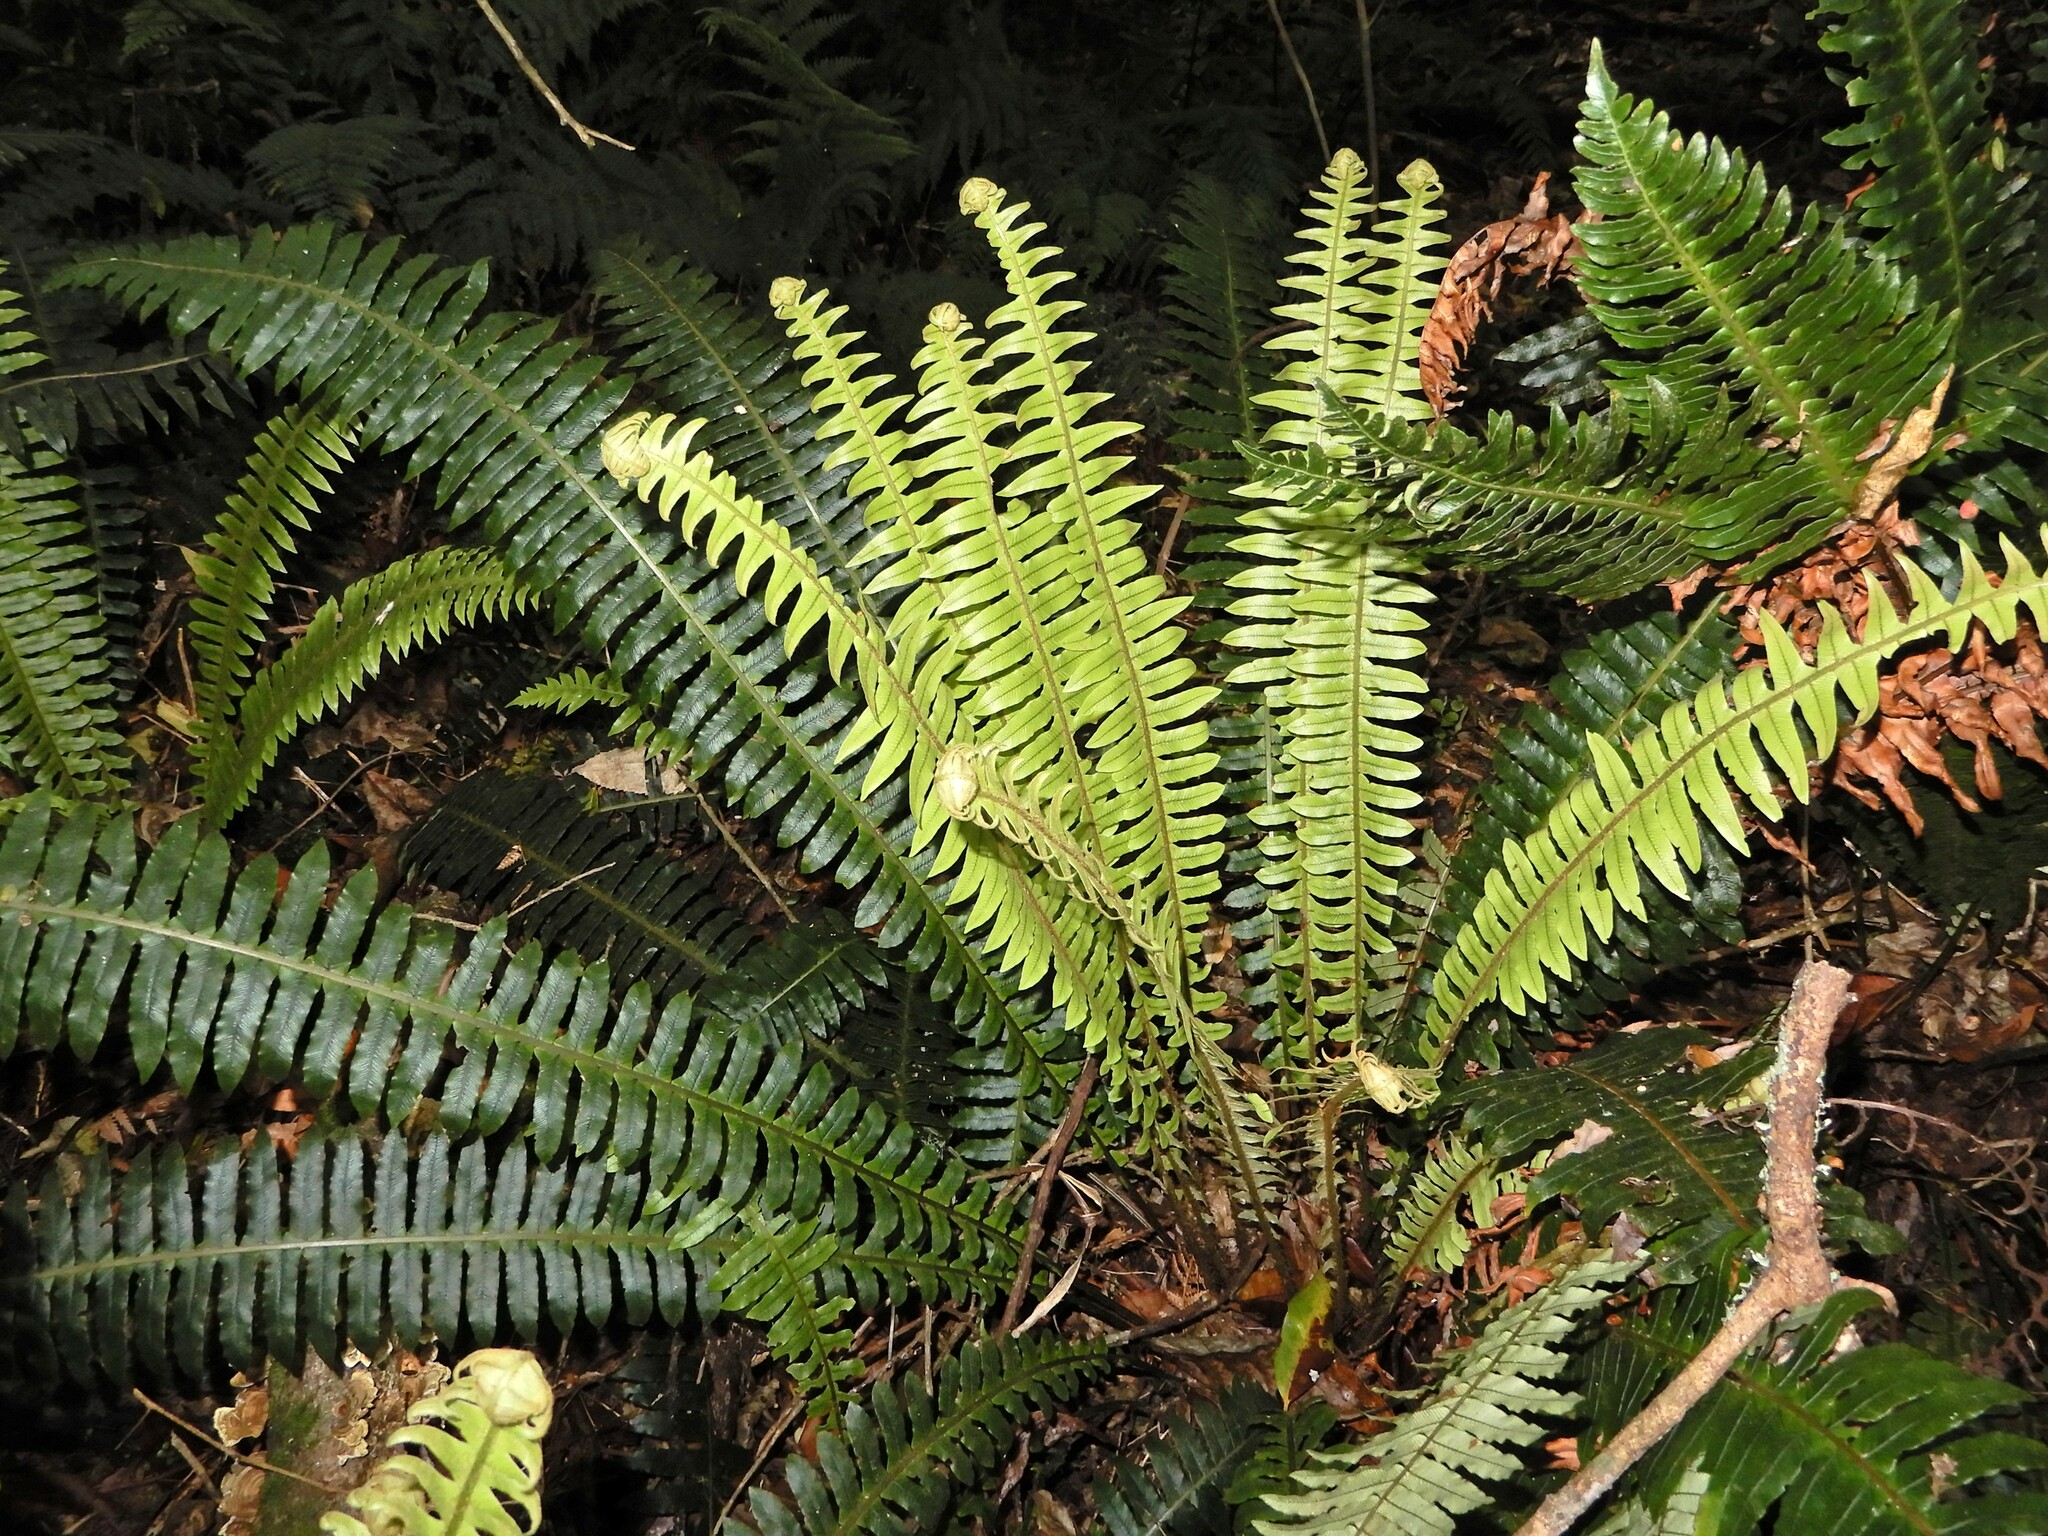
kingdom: Plantae
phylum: Tracheophyta
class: Polypodiopsida
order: Polypodiales
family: Blechnaceae
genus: Lomaria
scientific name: Lomaria discolor
